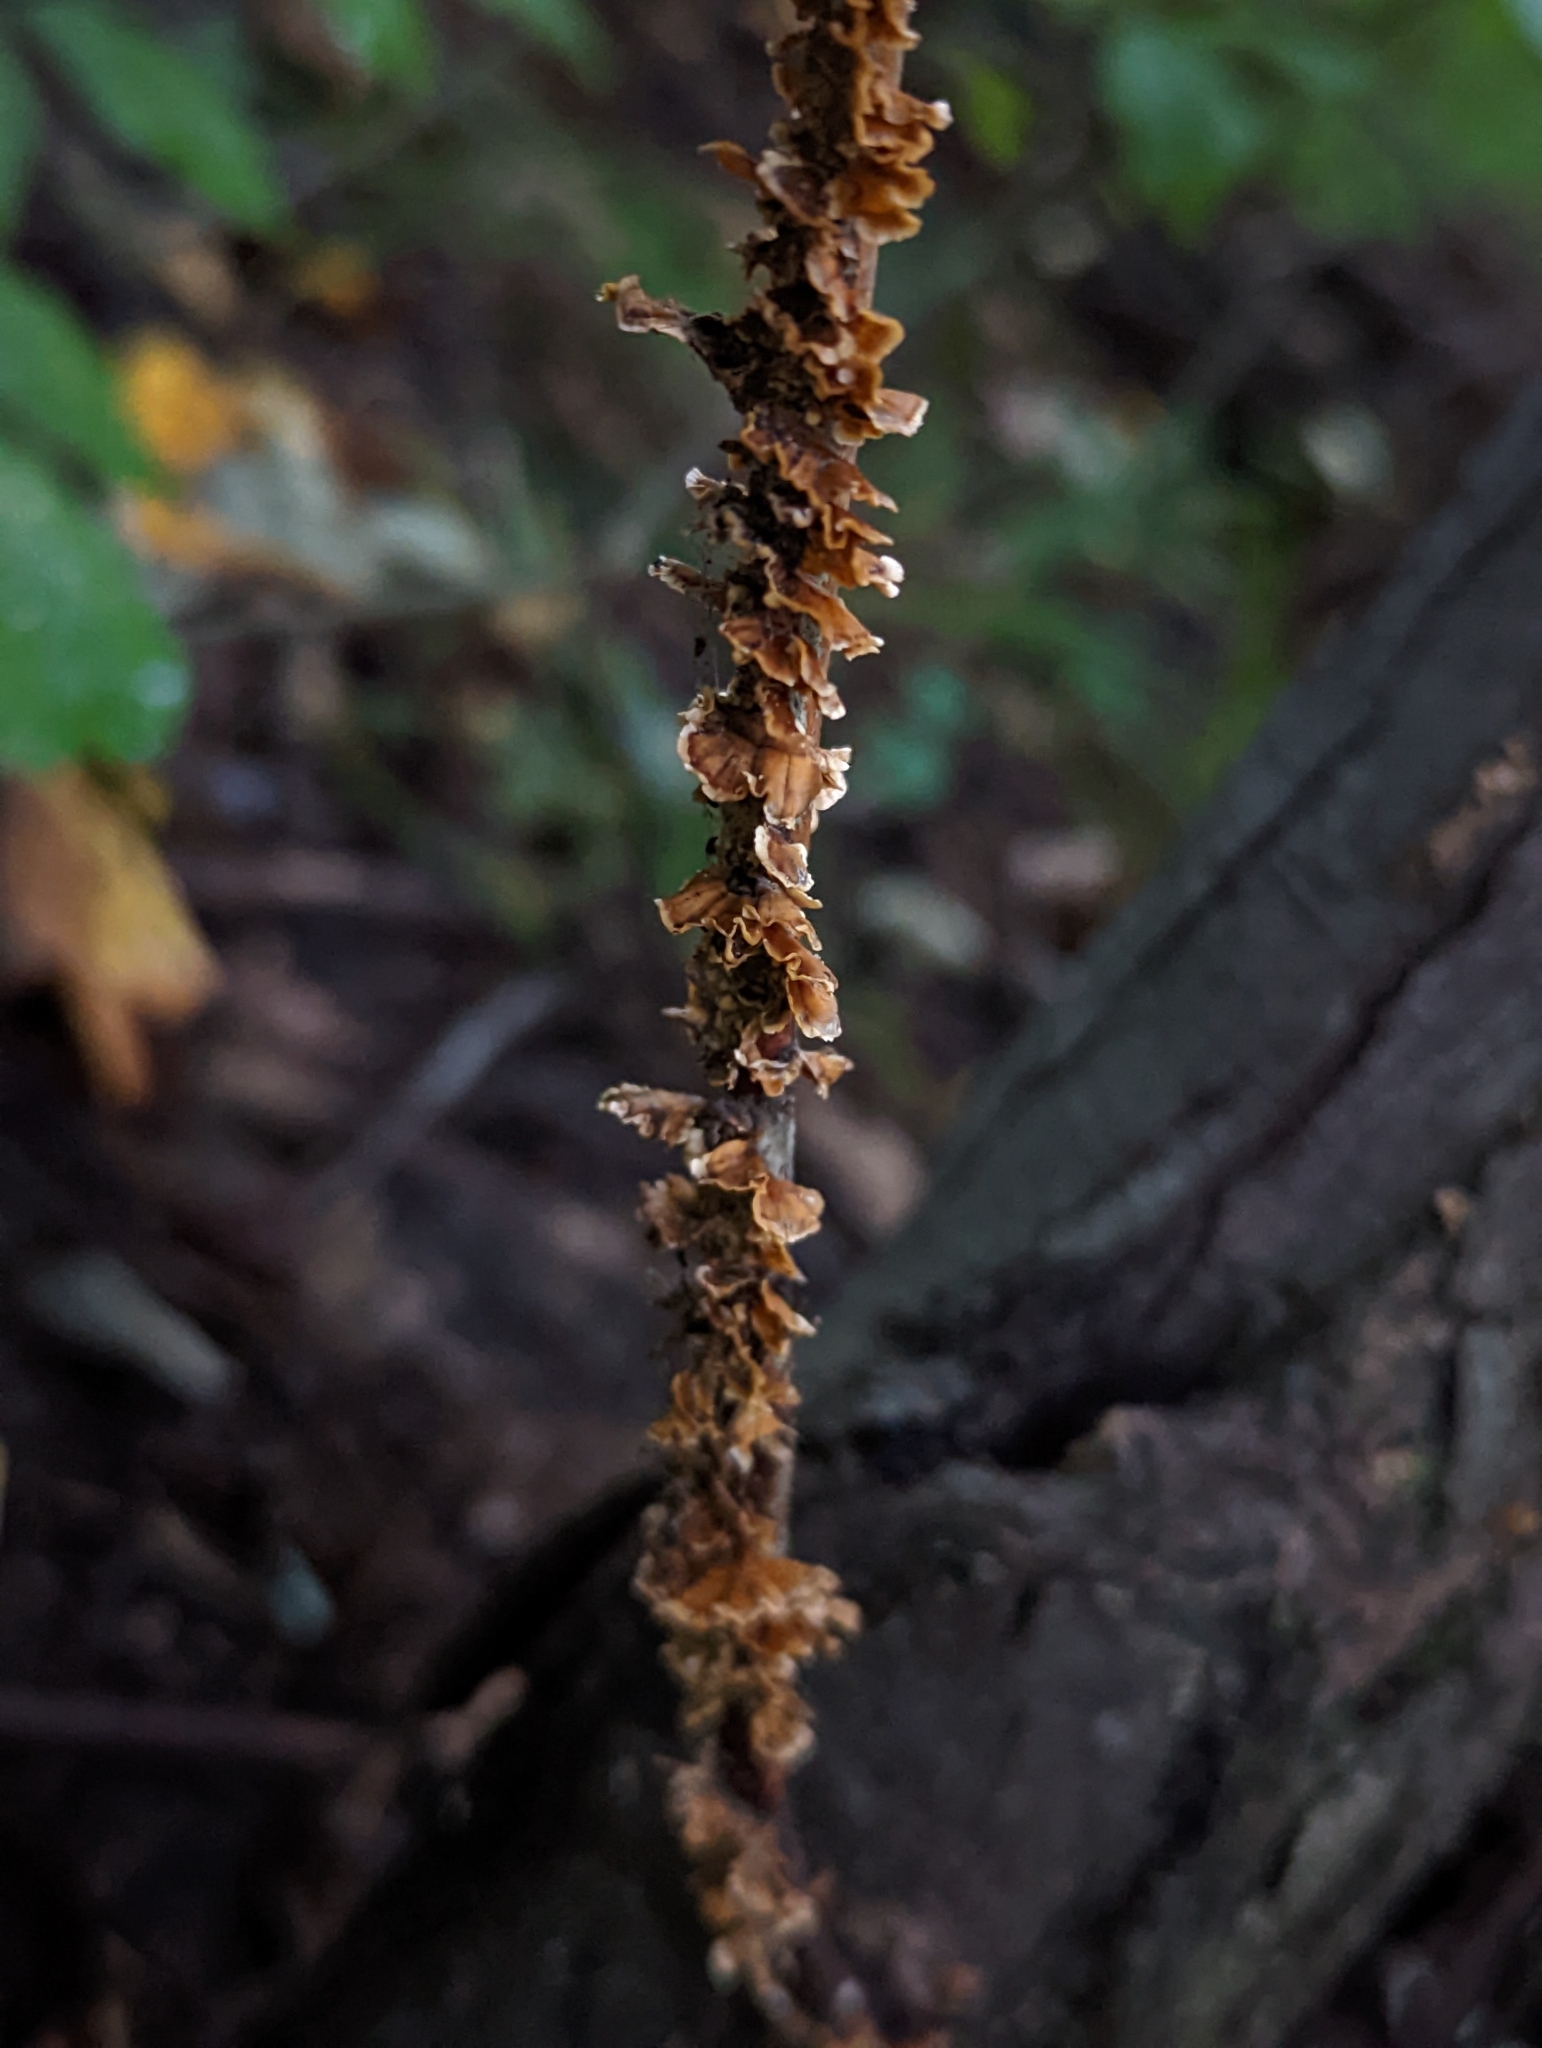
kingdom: Fungi
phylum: Basidiomycota
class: Agaricomycetes
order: Russulales
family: Stereaceae
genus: Stereum
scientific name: Stereum complicatum
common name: Crowded parchment
